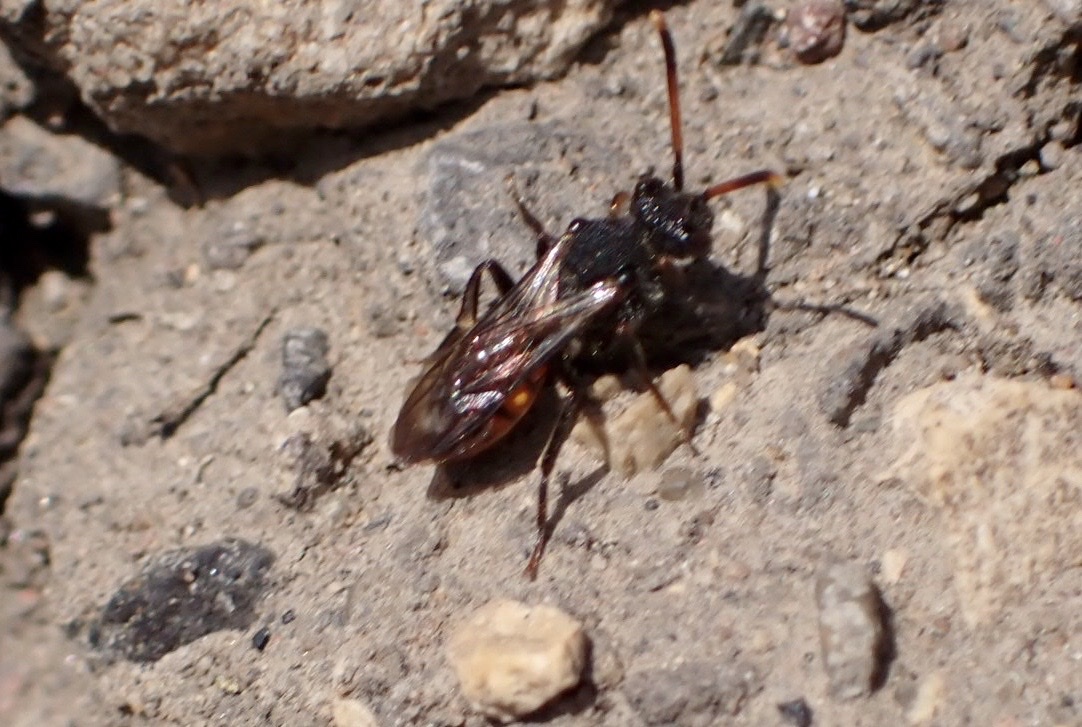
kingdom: Animalia
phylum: Arthropoda
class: Insecta
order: Hymenoptera
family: Apidae
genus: Nomada
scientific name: Nomada fabriciana
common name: Fabricius' nomad bee
